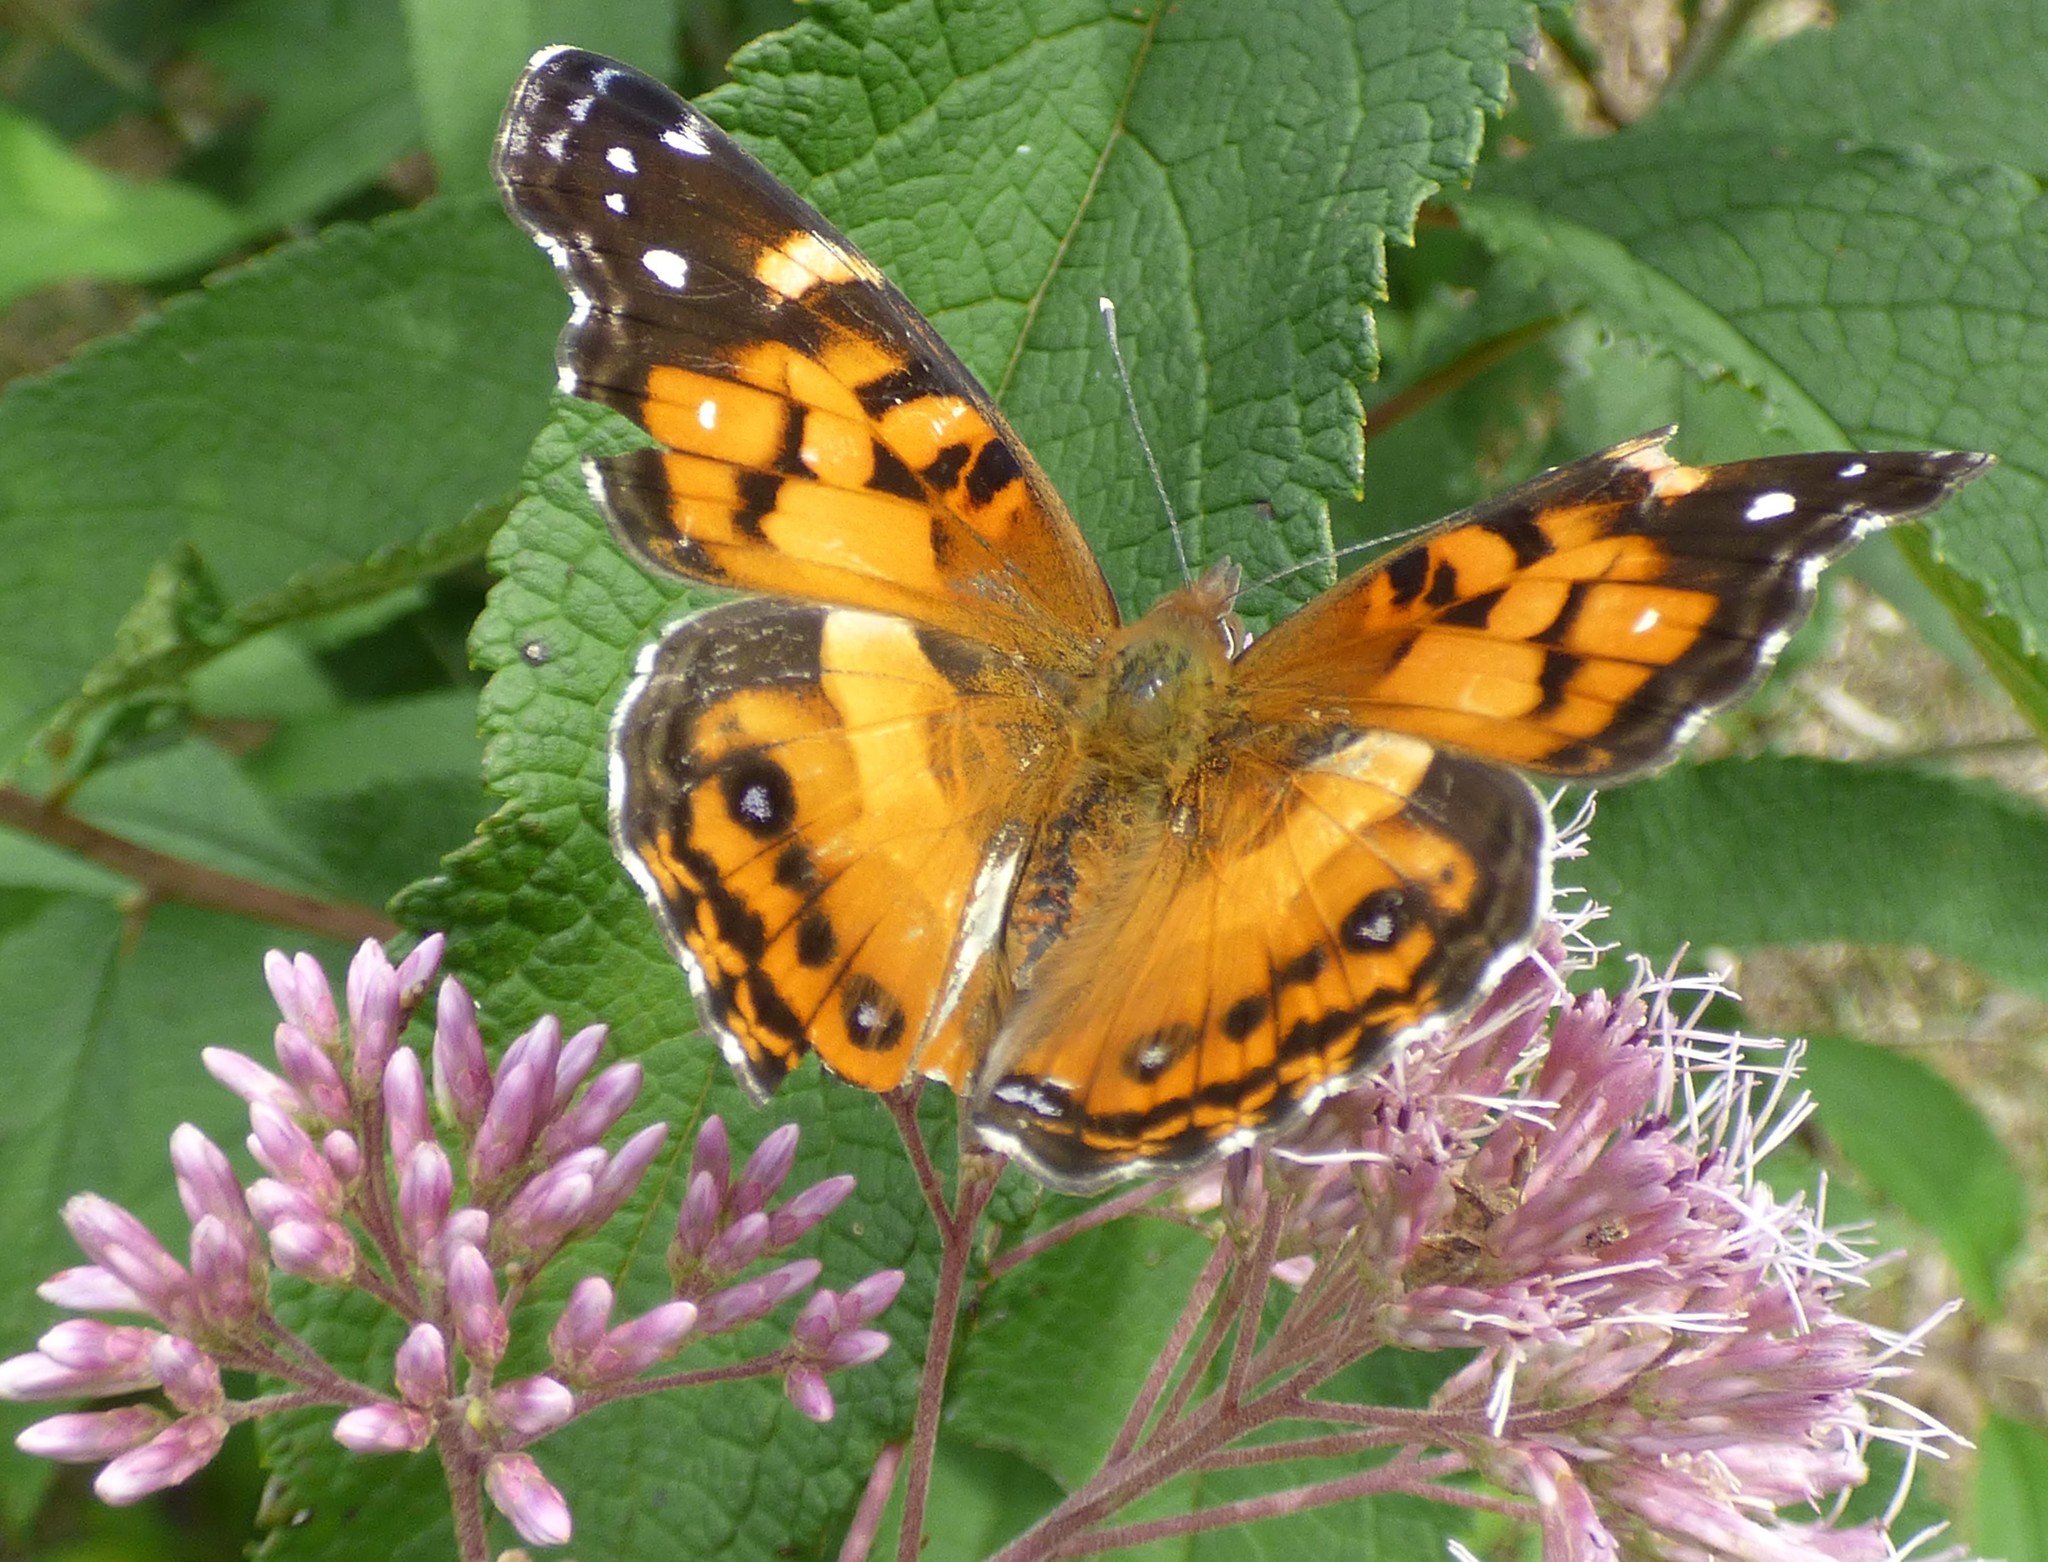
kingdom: Animalia
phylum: Arthropoda
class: Insecta
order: Lepidoptera
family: Nymphalidae
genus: Vanessa
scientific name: Vanessa virginiensis
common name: American lady
